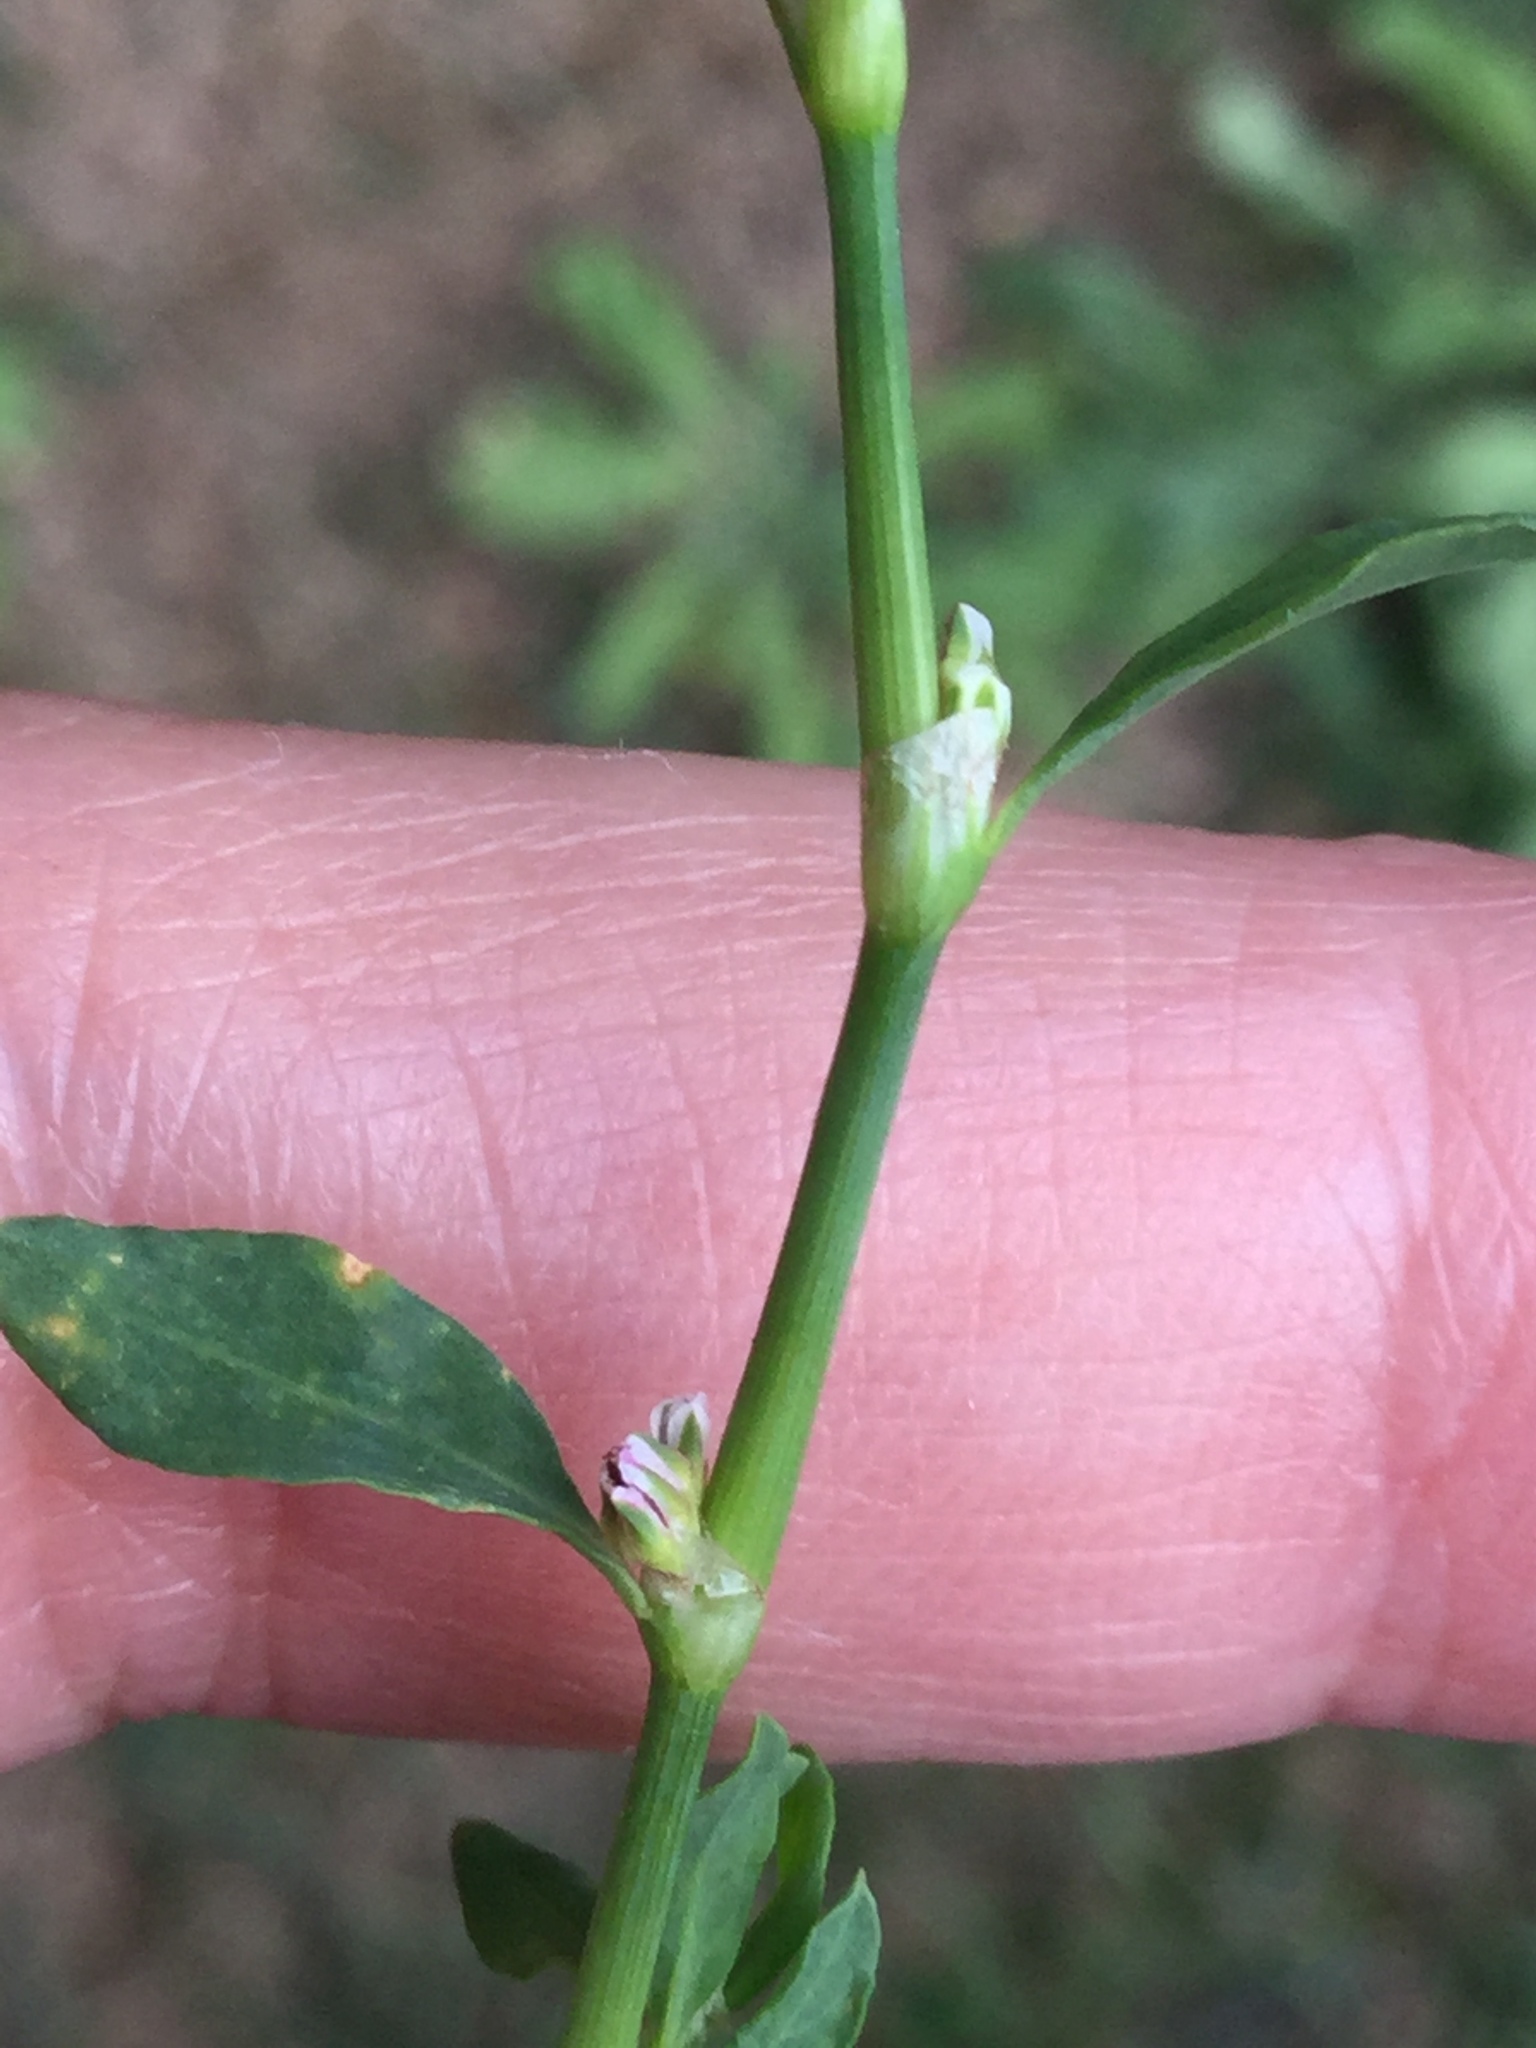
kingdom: Plantae
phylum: Tracheophyta
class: Magnoliopsida
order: Caryophyllales
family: Polygonaceae
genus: Polygonum
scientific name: Polygonum aviculare
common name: Prostrate knotweed
